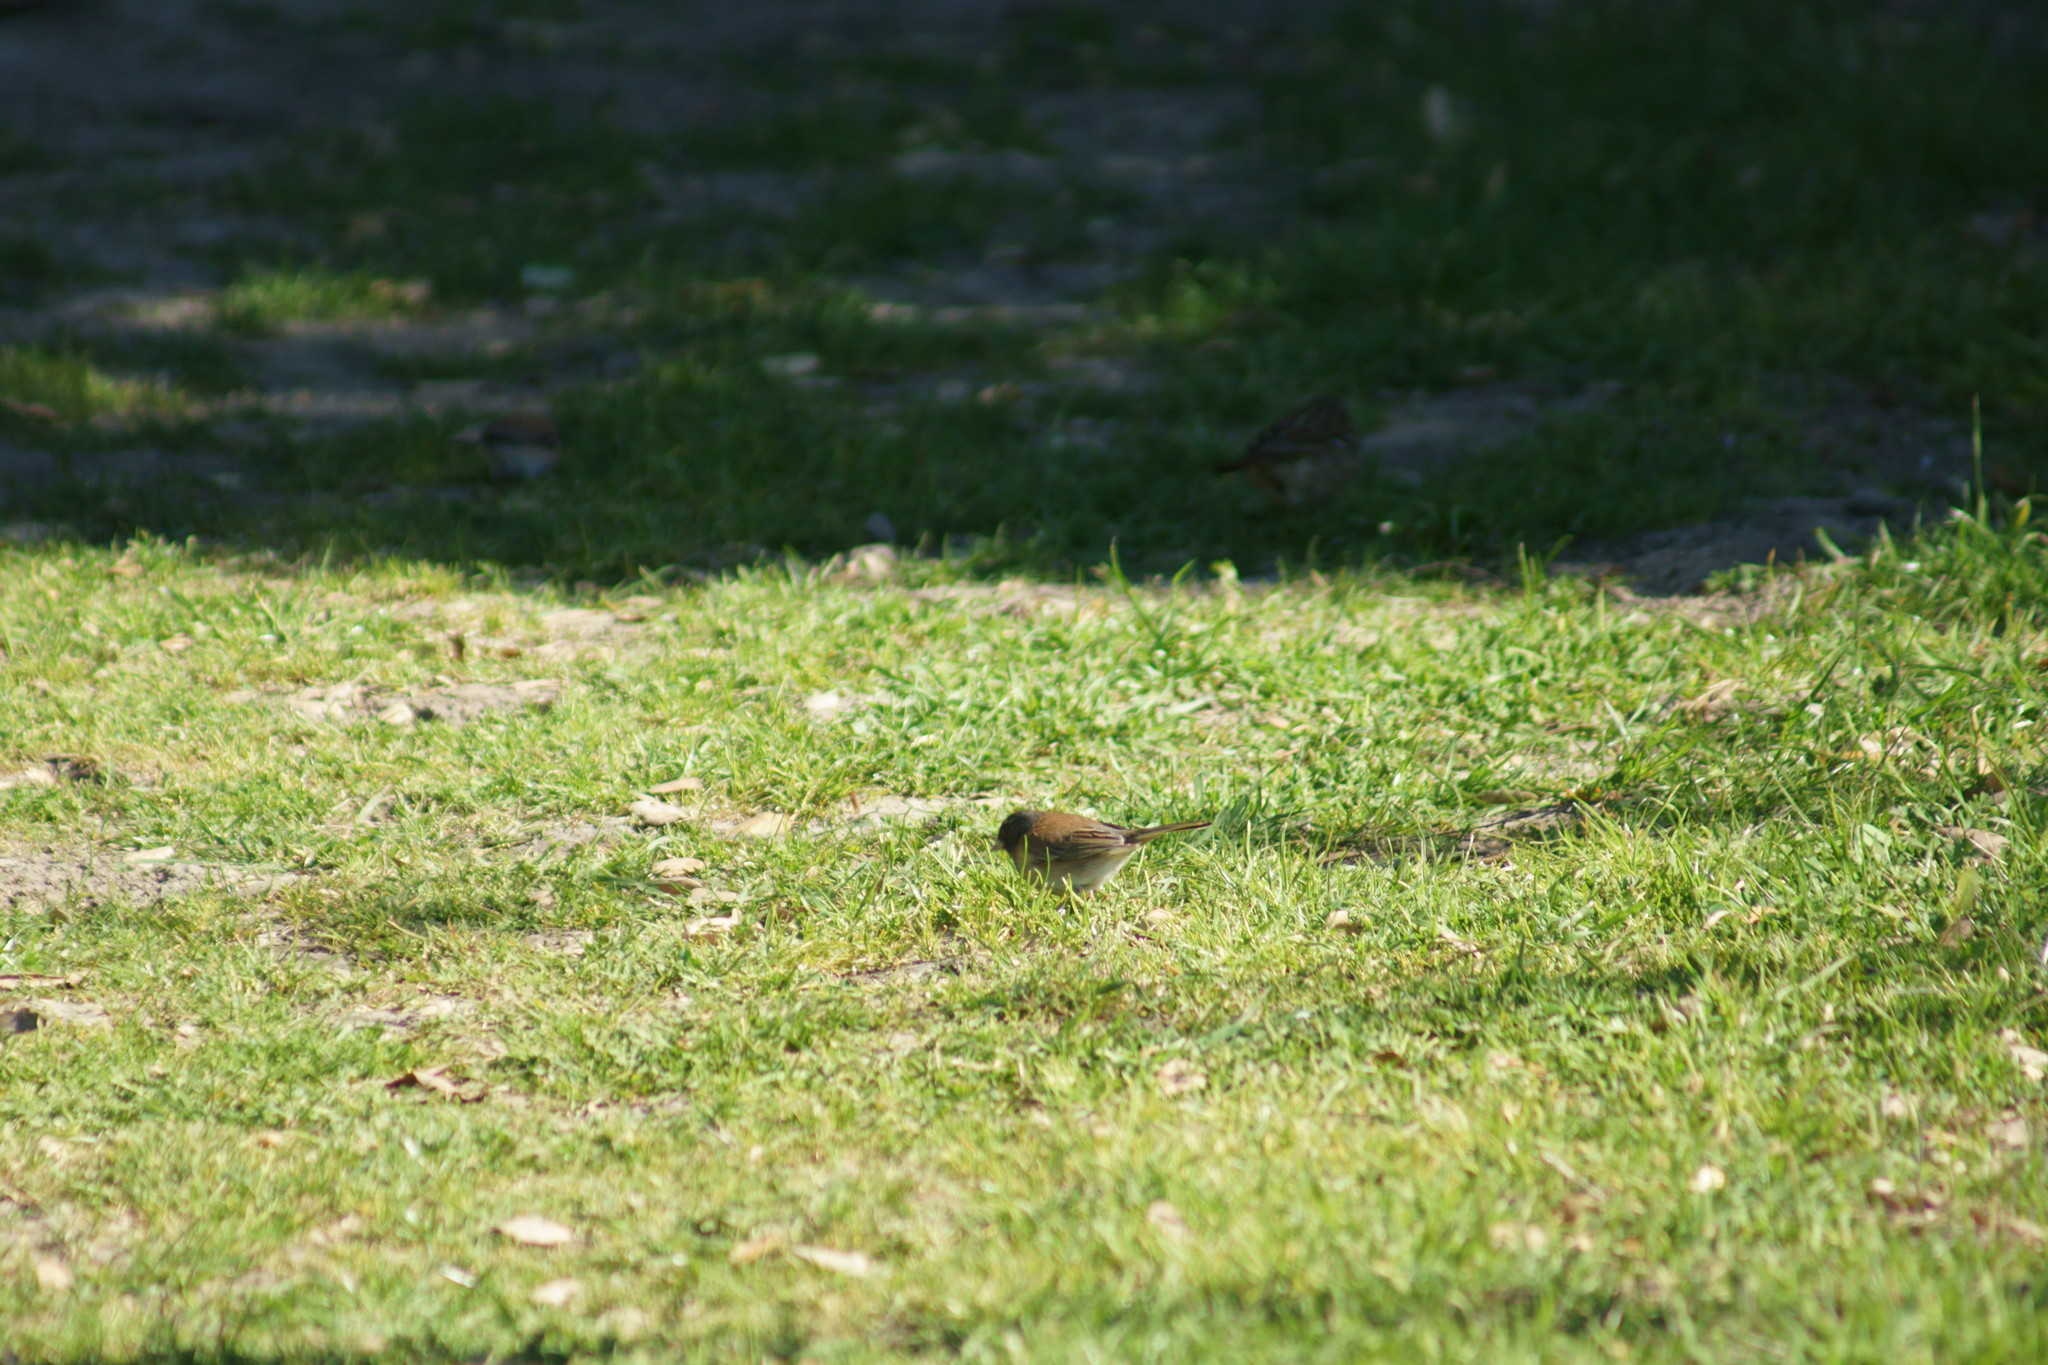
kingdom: Animalia
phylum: Chordata
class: Aves
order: Passeriformes
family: Passerellidae
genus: Junco
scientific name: Junco hyemalis
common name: Dark-eyed junco
